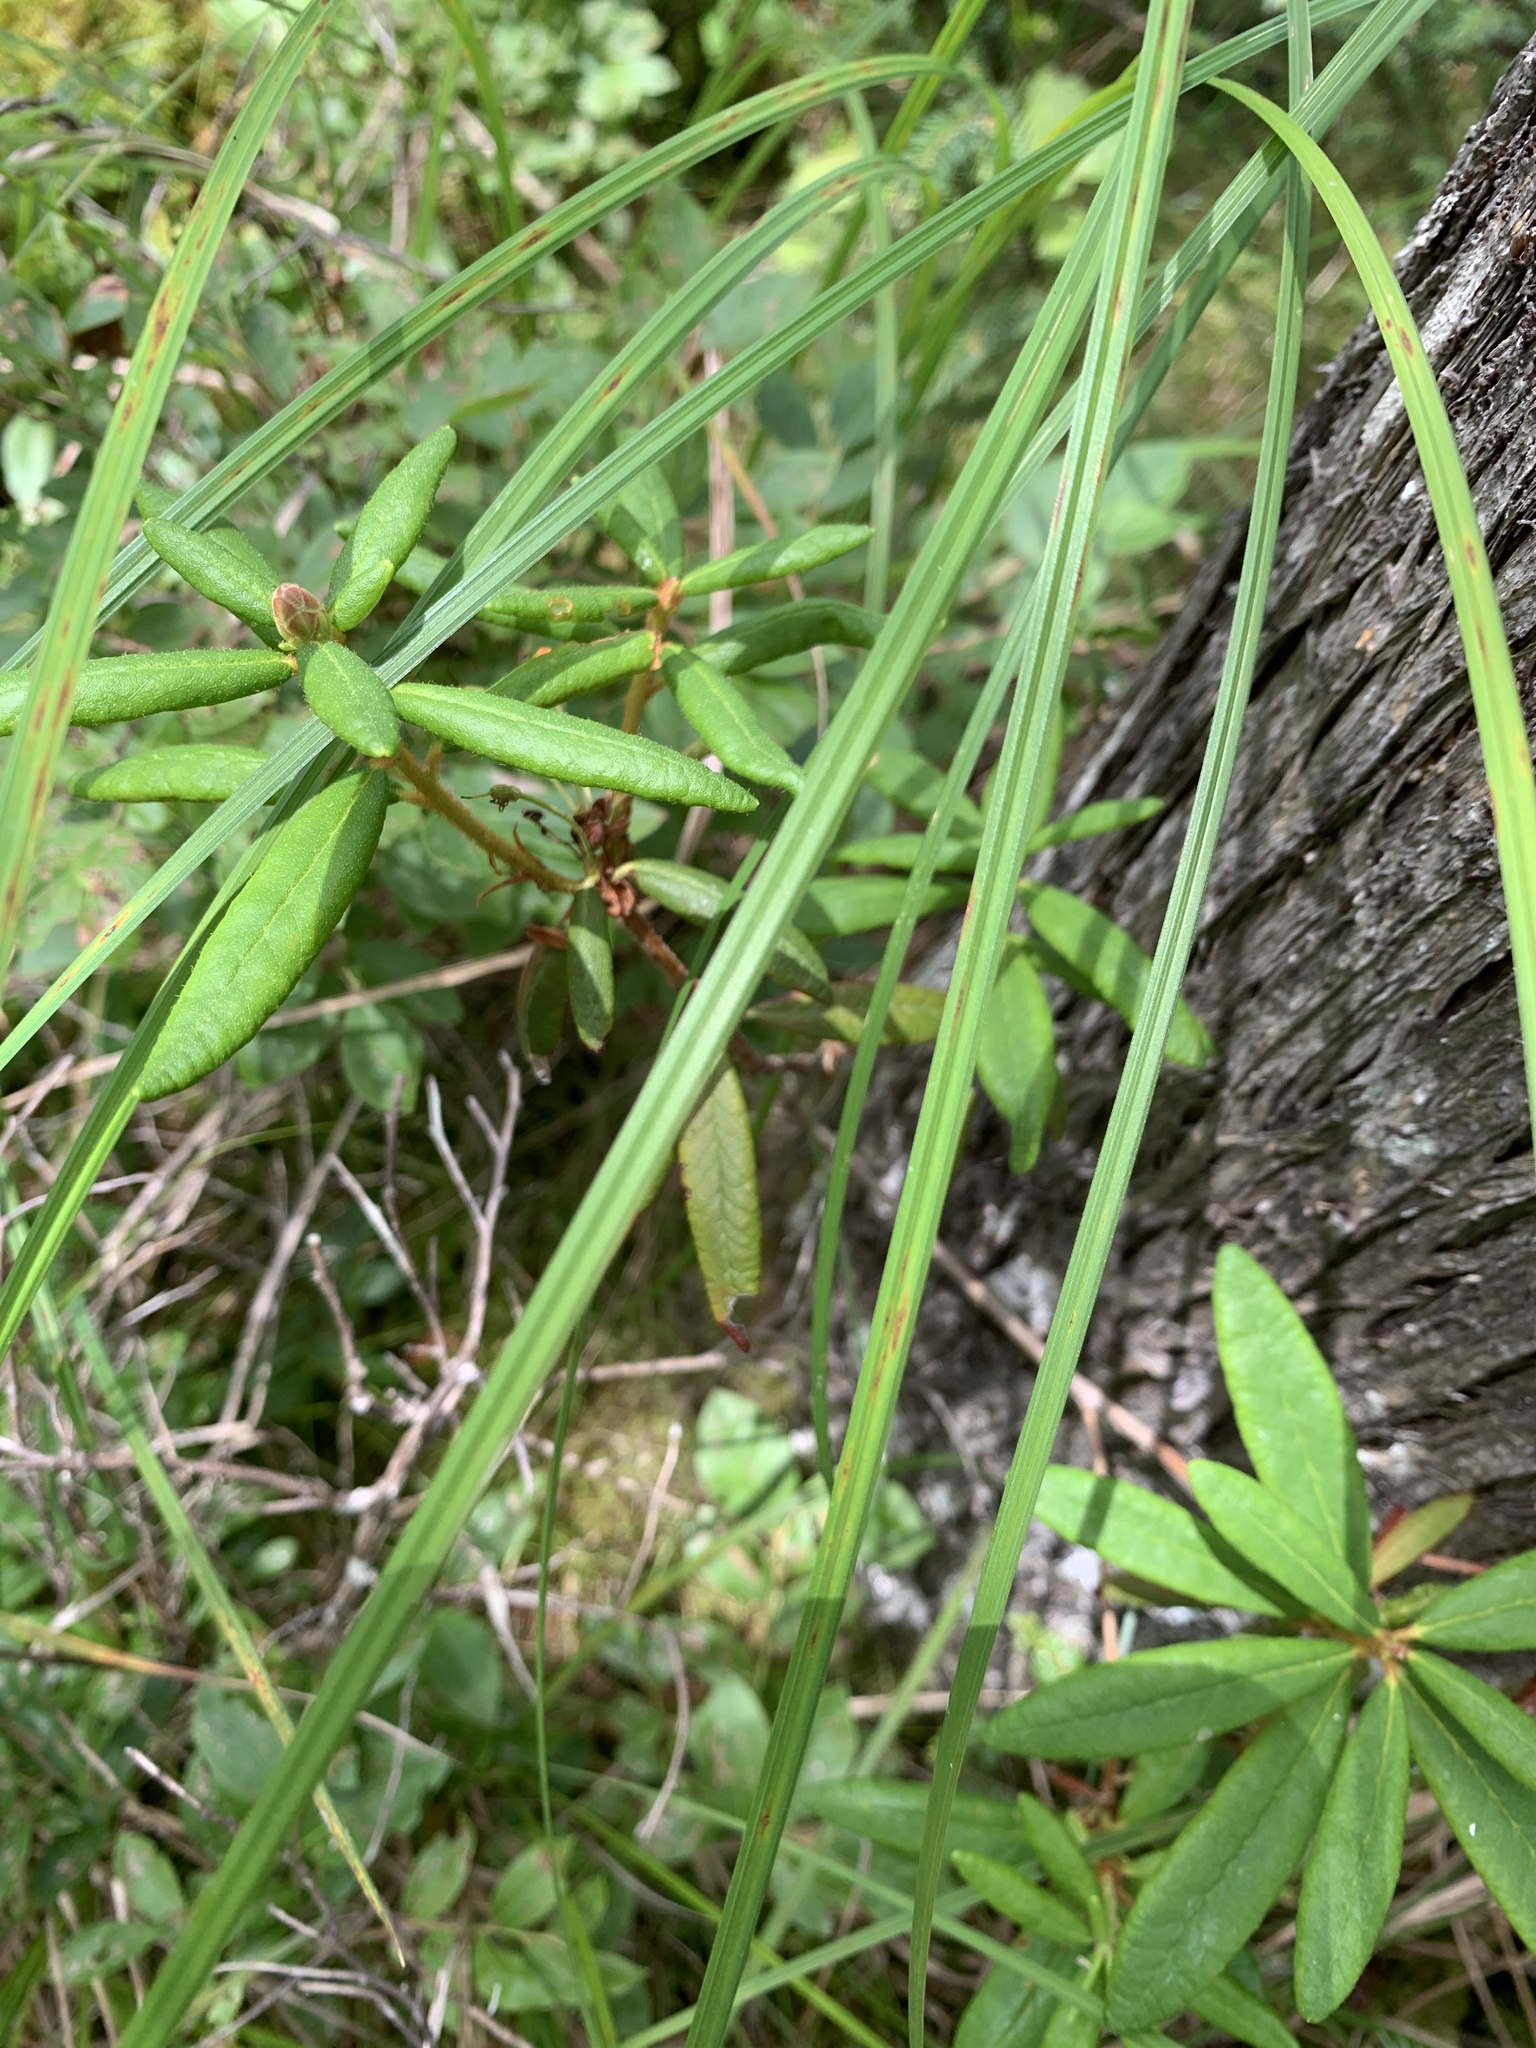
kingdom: Plantae
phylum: Tracheophyta
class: Magnoliopsida
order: Ericales
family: Ericaceae
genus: Rhododendron
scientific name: Rhododendron groenlandicum
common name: Bog labrador tea
